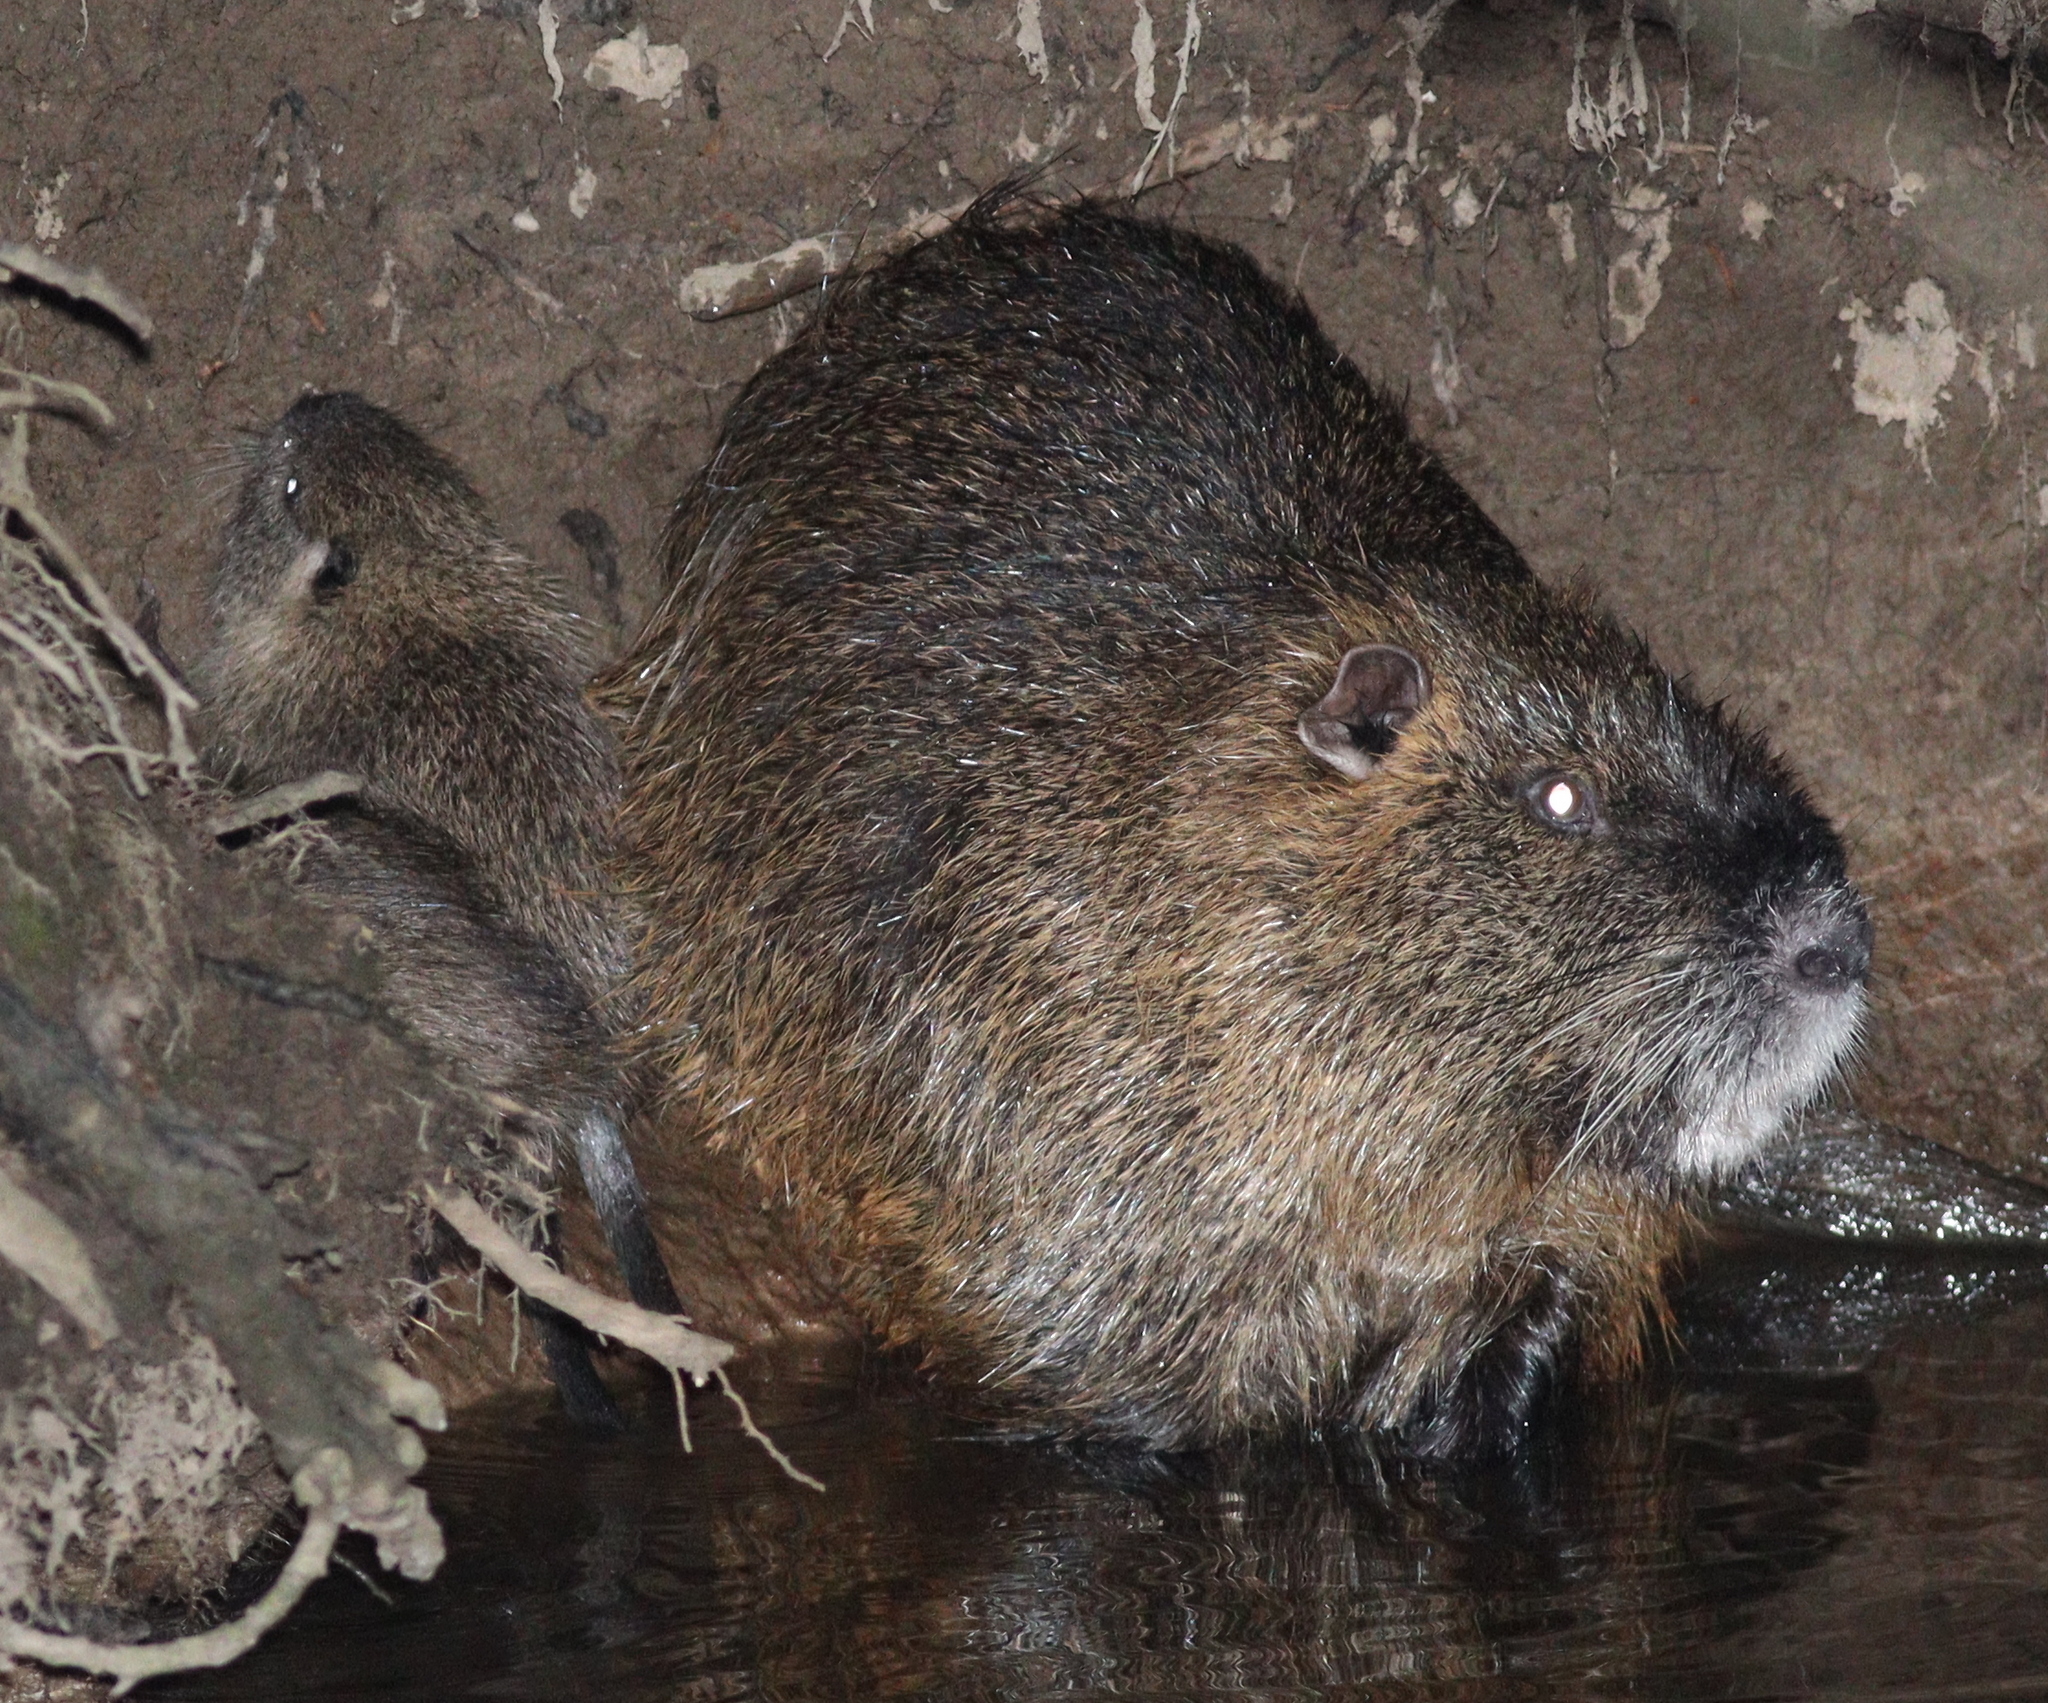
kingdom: Animalia
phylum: Chordata
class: Mammalia
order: Rodentia
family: Myocastoridae
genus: Myocastor
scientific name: Myocastor coypus
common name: Coypu
